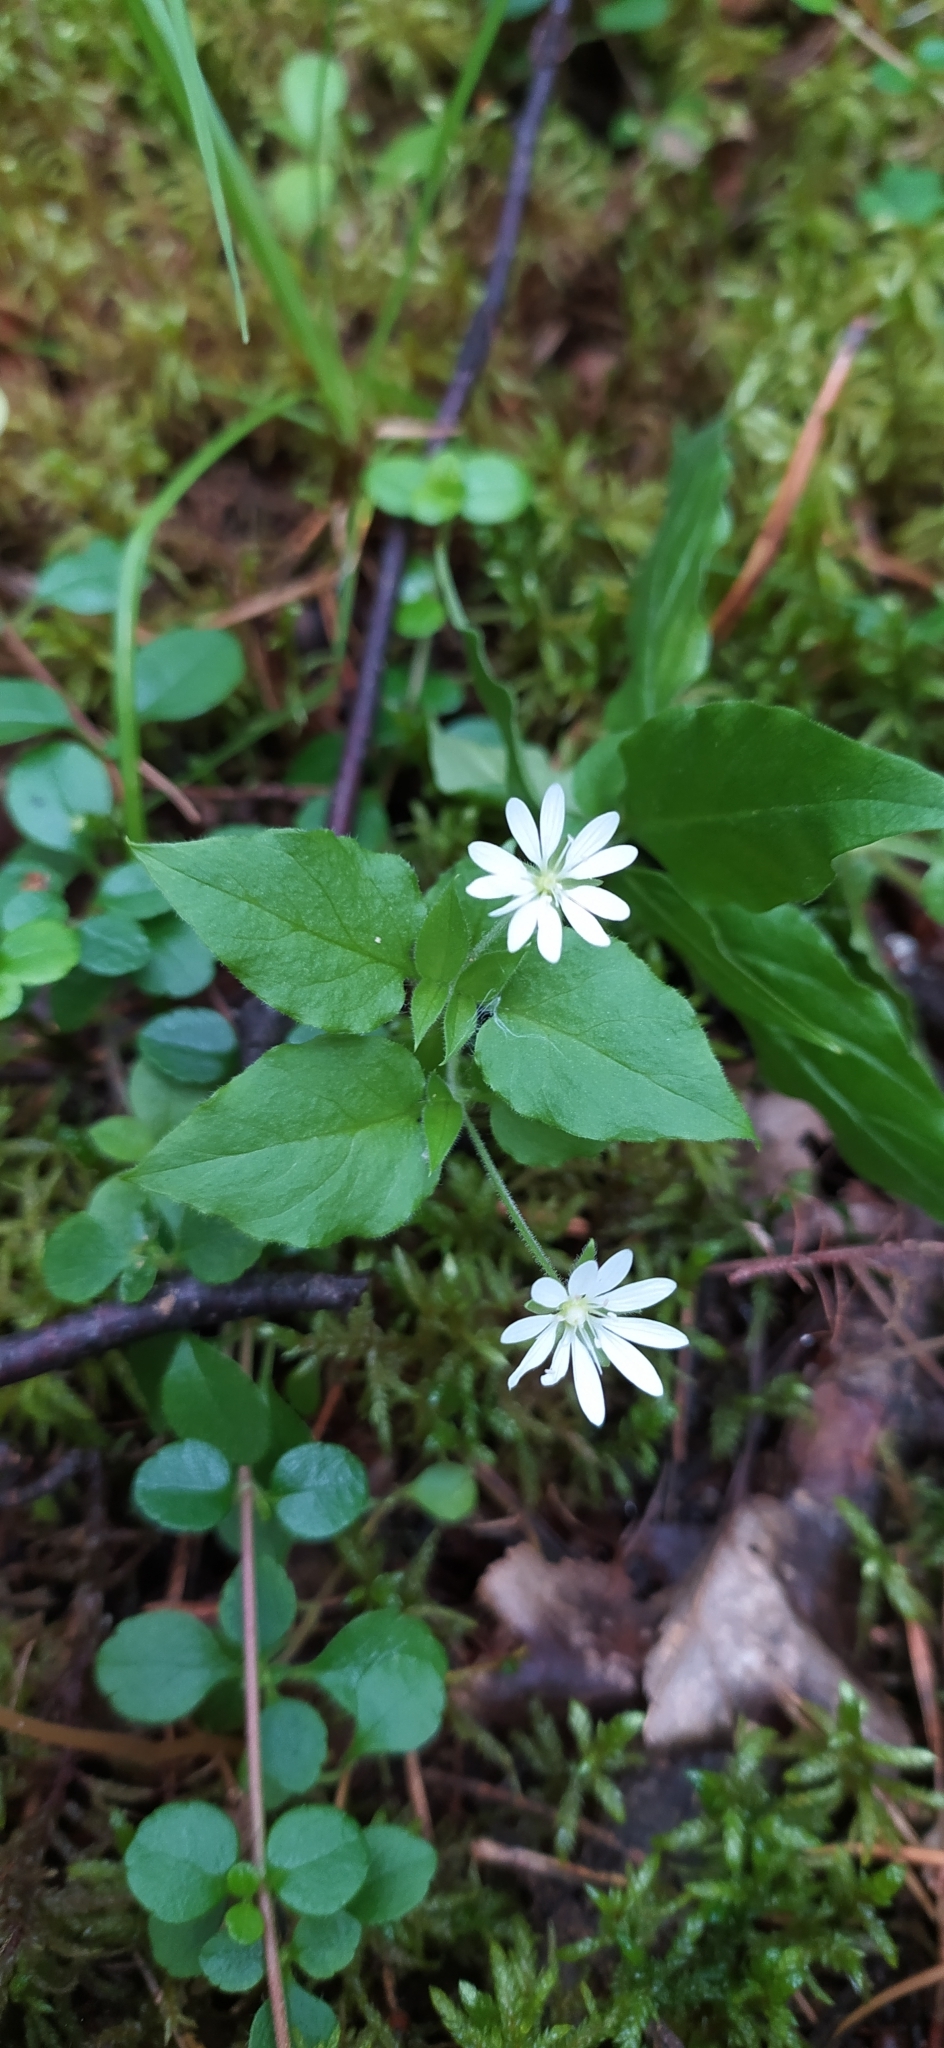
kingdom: Plantae
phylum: Tracheophyta
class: Magnoliopsida
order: Caryophyllales
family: Caryophyllaceae
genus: Stellaria
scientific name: Stellaria bungeana
